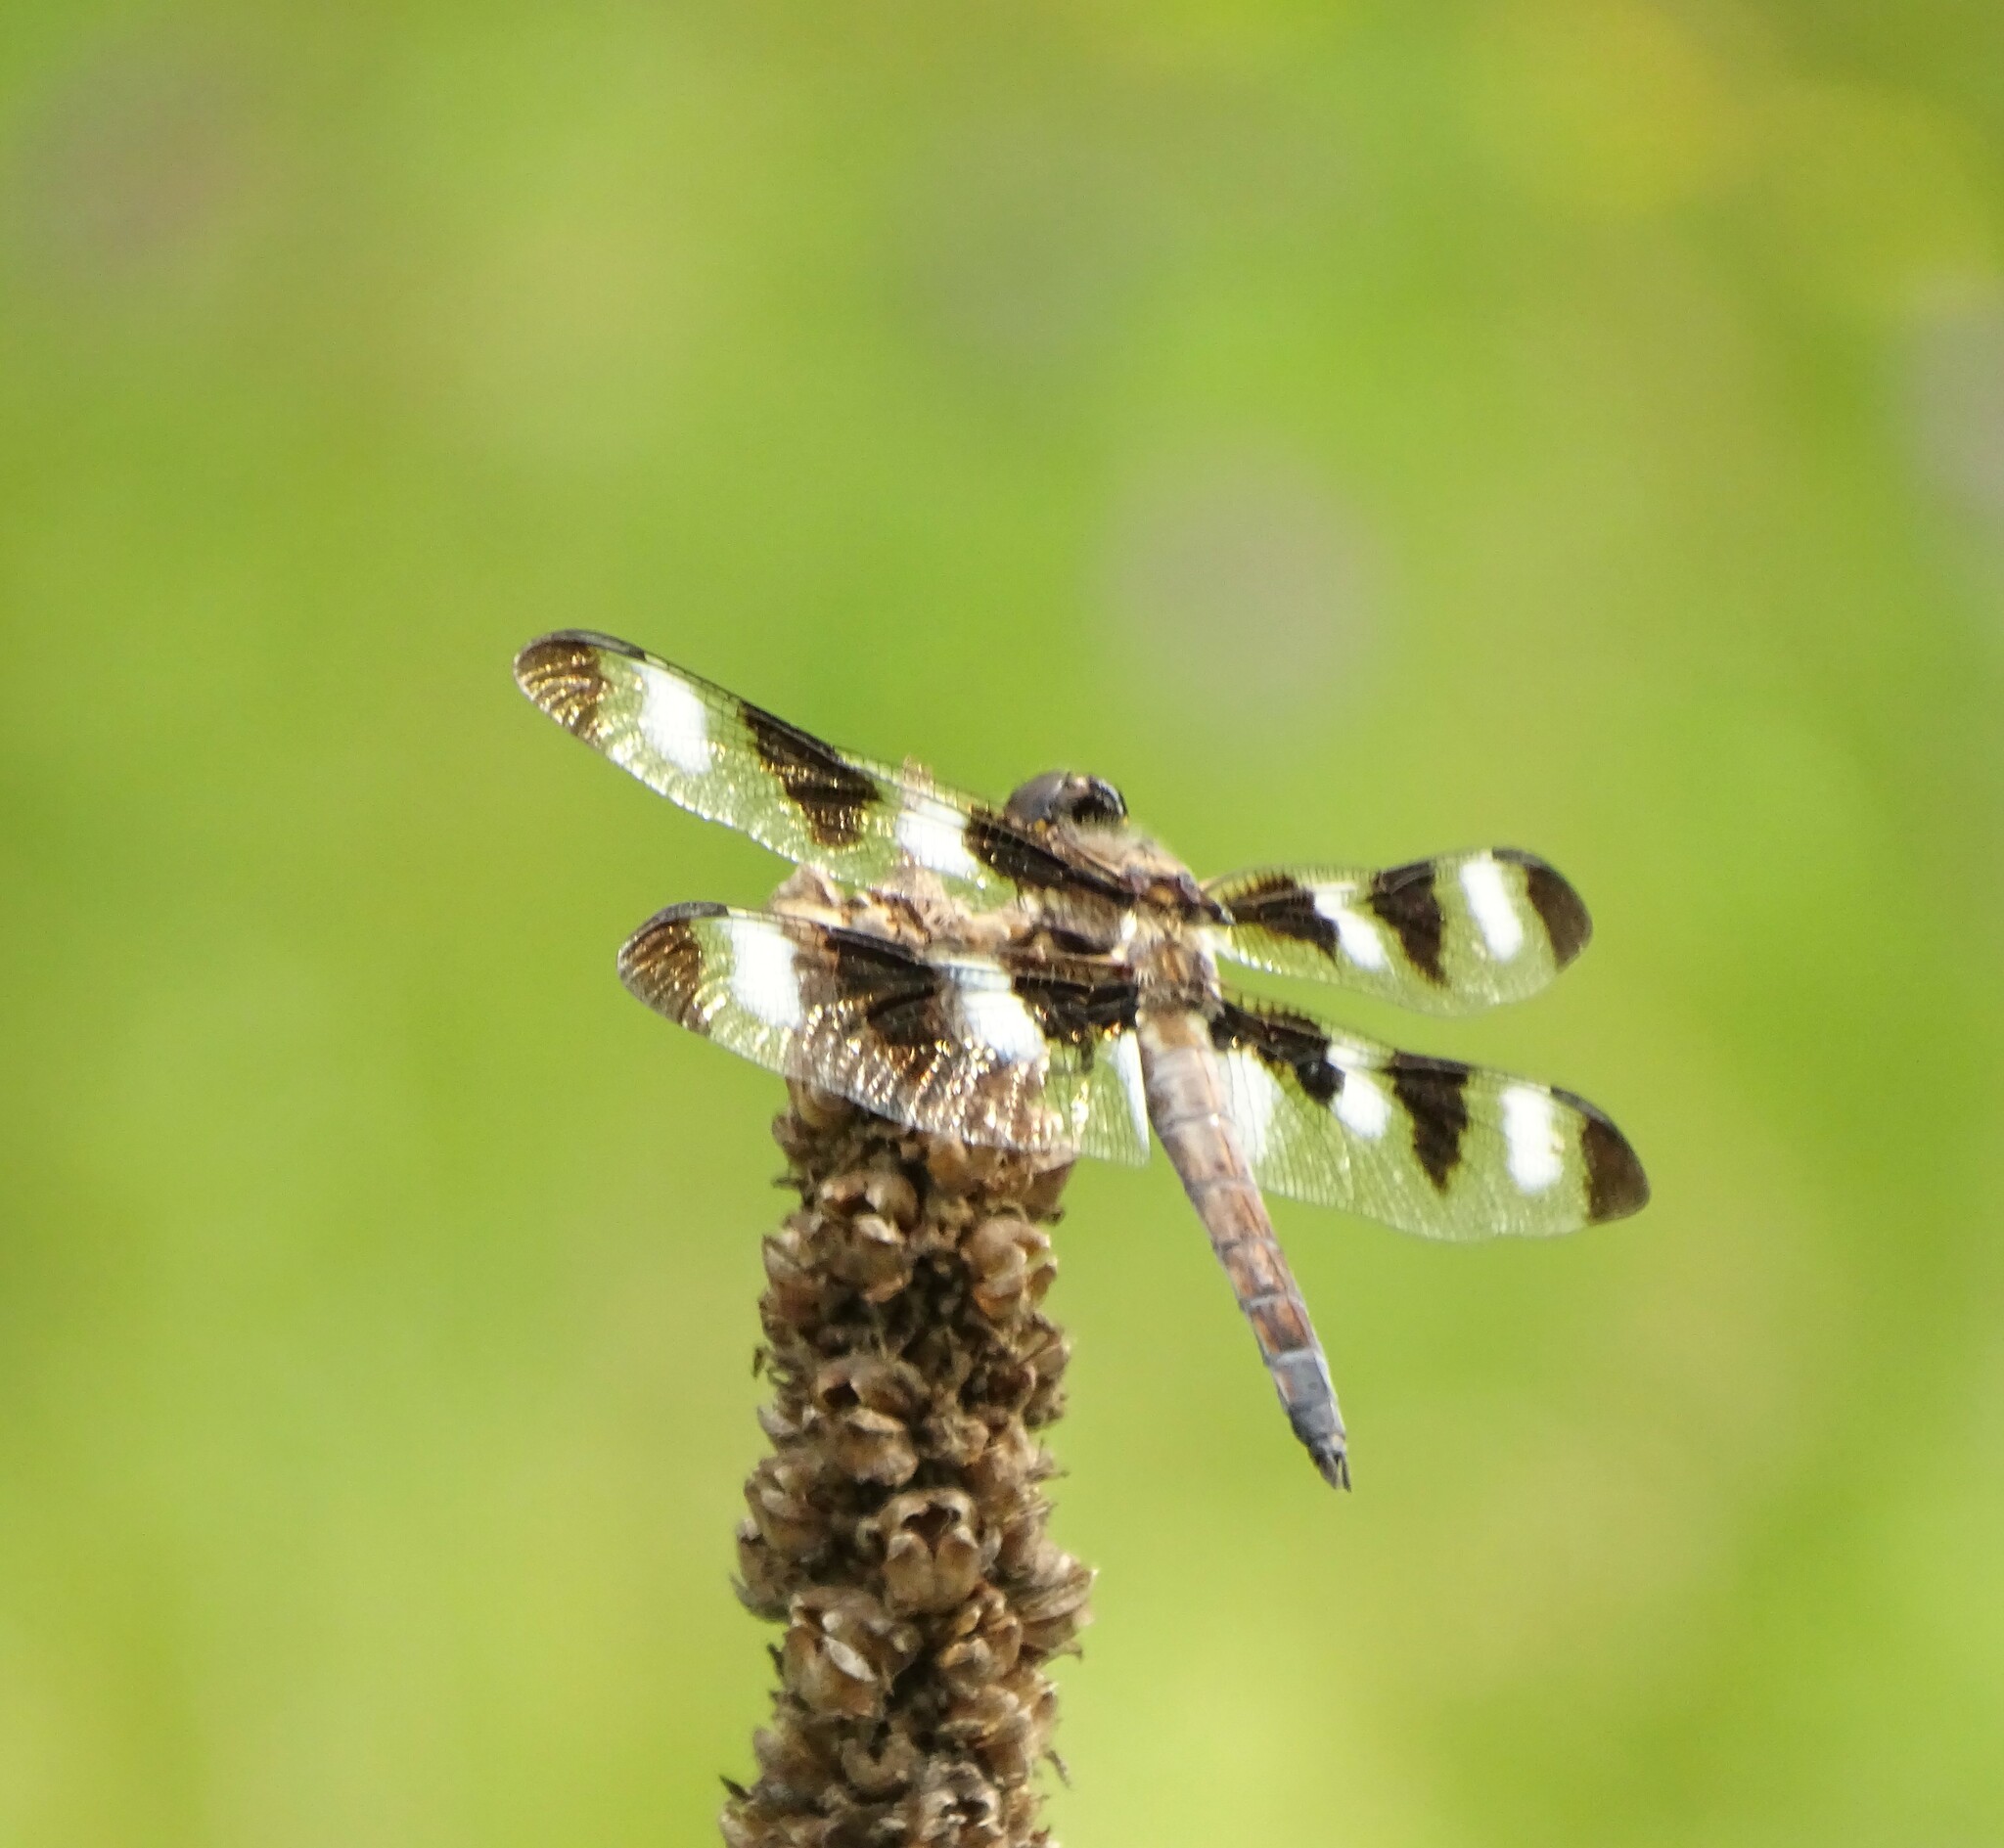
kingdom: Animalia
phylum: Arthropoda
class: Insecta
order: Odonata
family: Libellulidae
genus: Libellula
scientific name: Libellula pulchella
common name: Twelve-spotted skimmer
